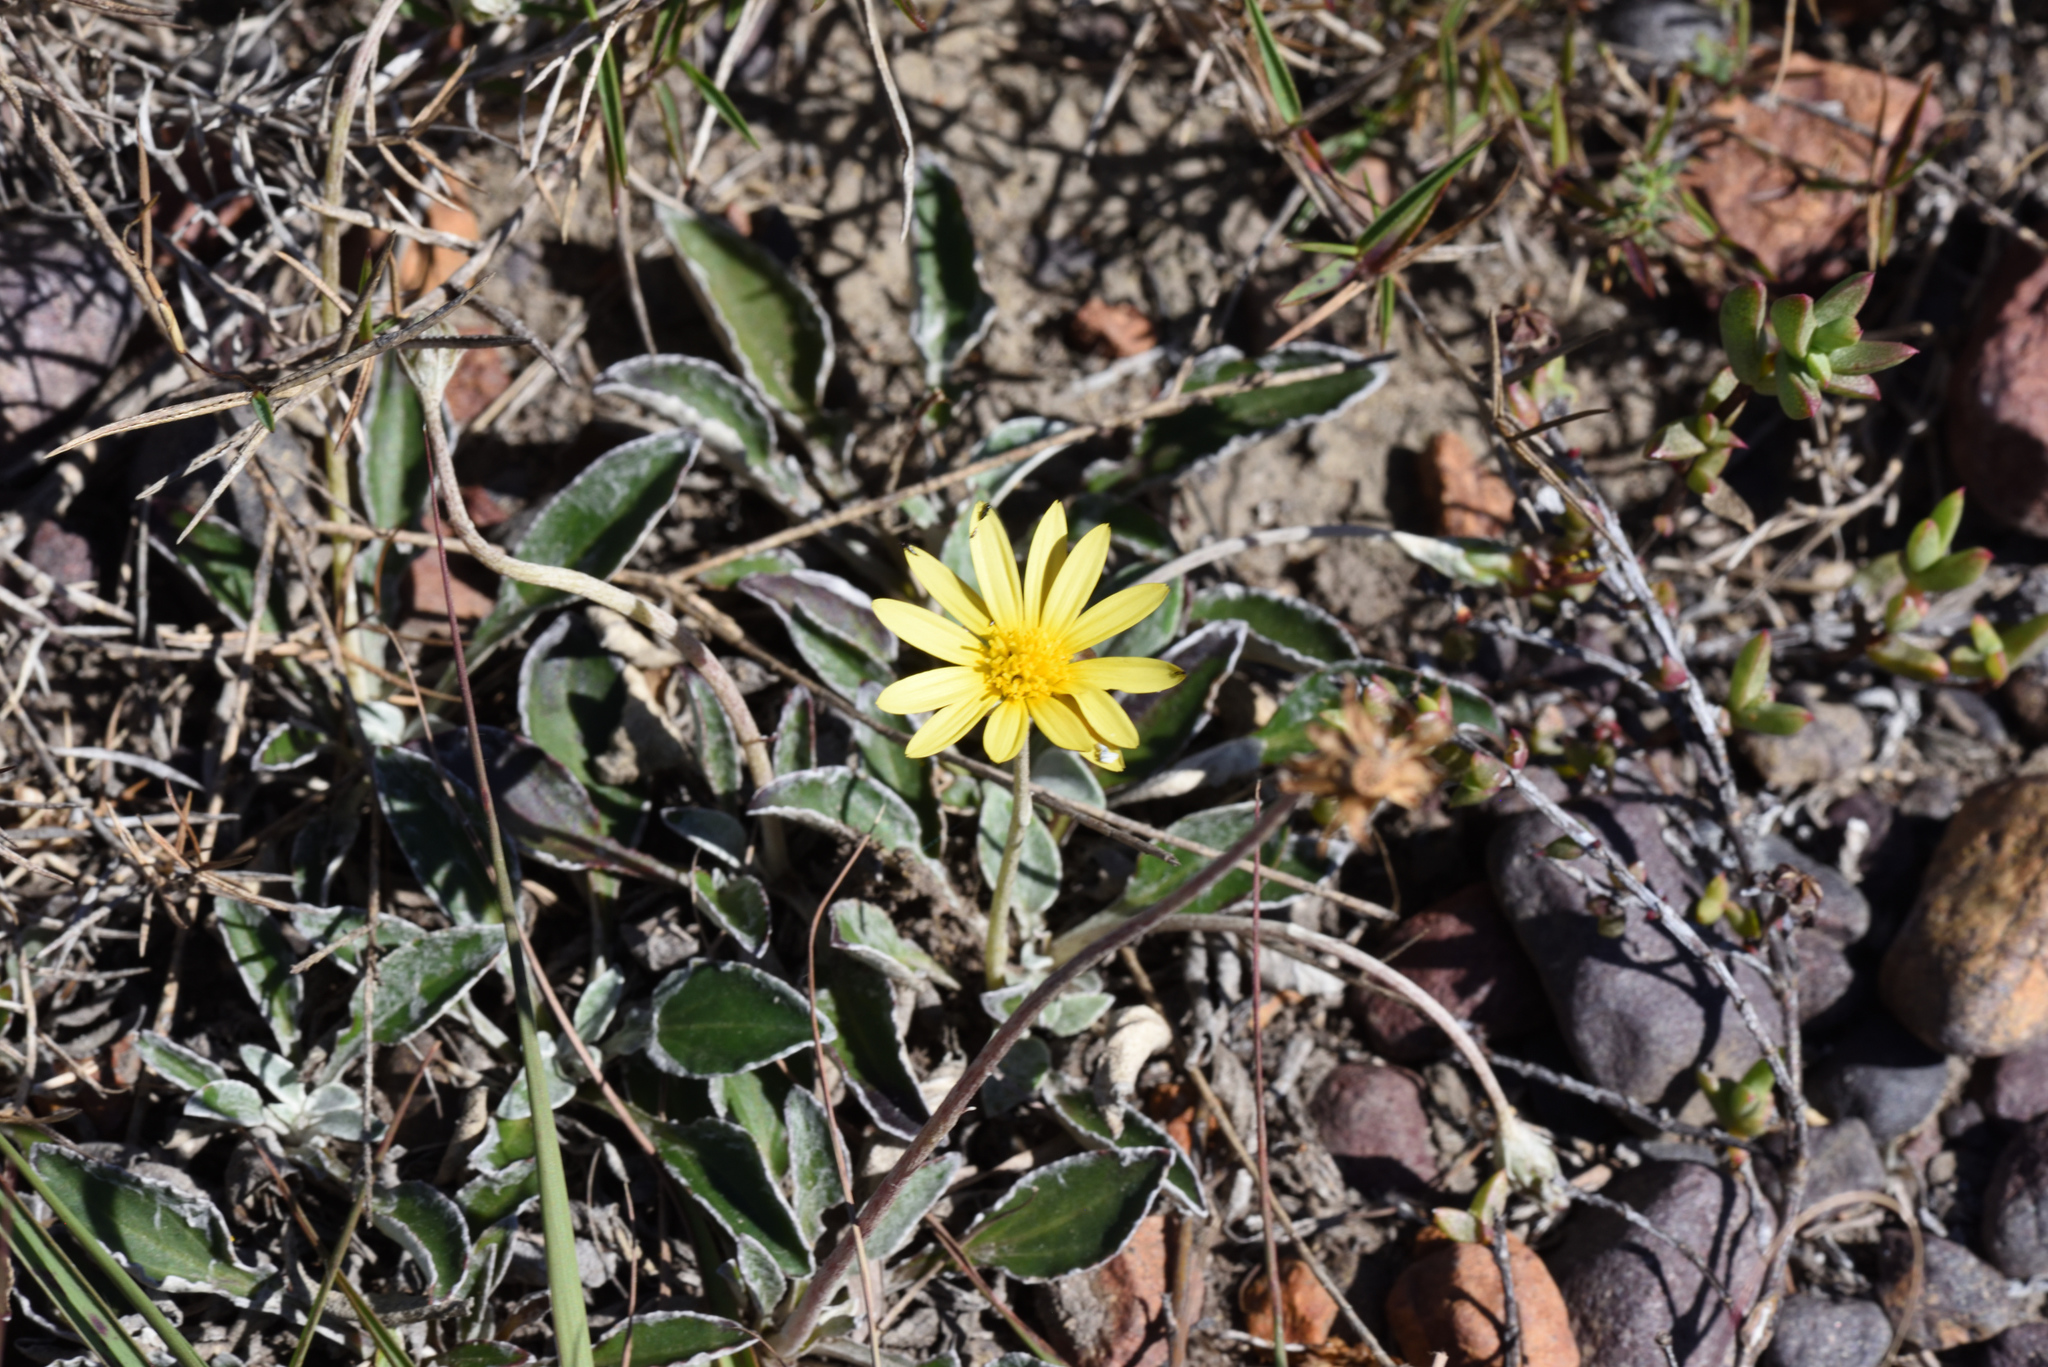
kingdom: Plantae
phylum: Tracheophyta
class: Magnoliopsida
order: Asterales
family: Asteraceae
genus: Haplocarpha
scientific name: Haplocarpha lyrata
